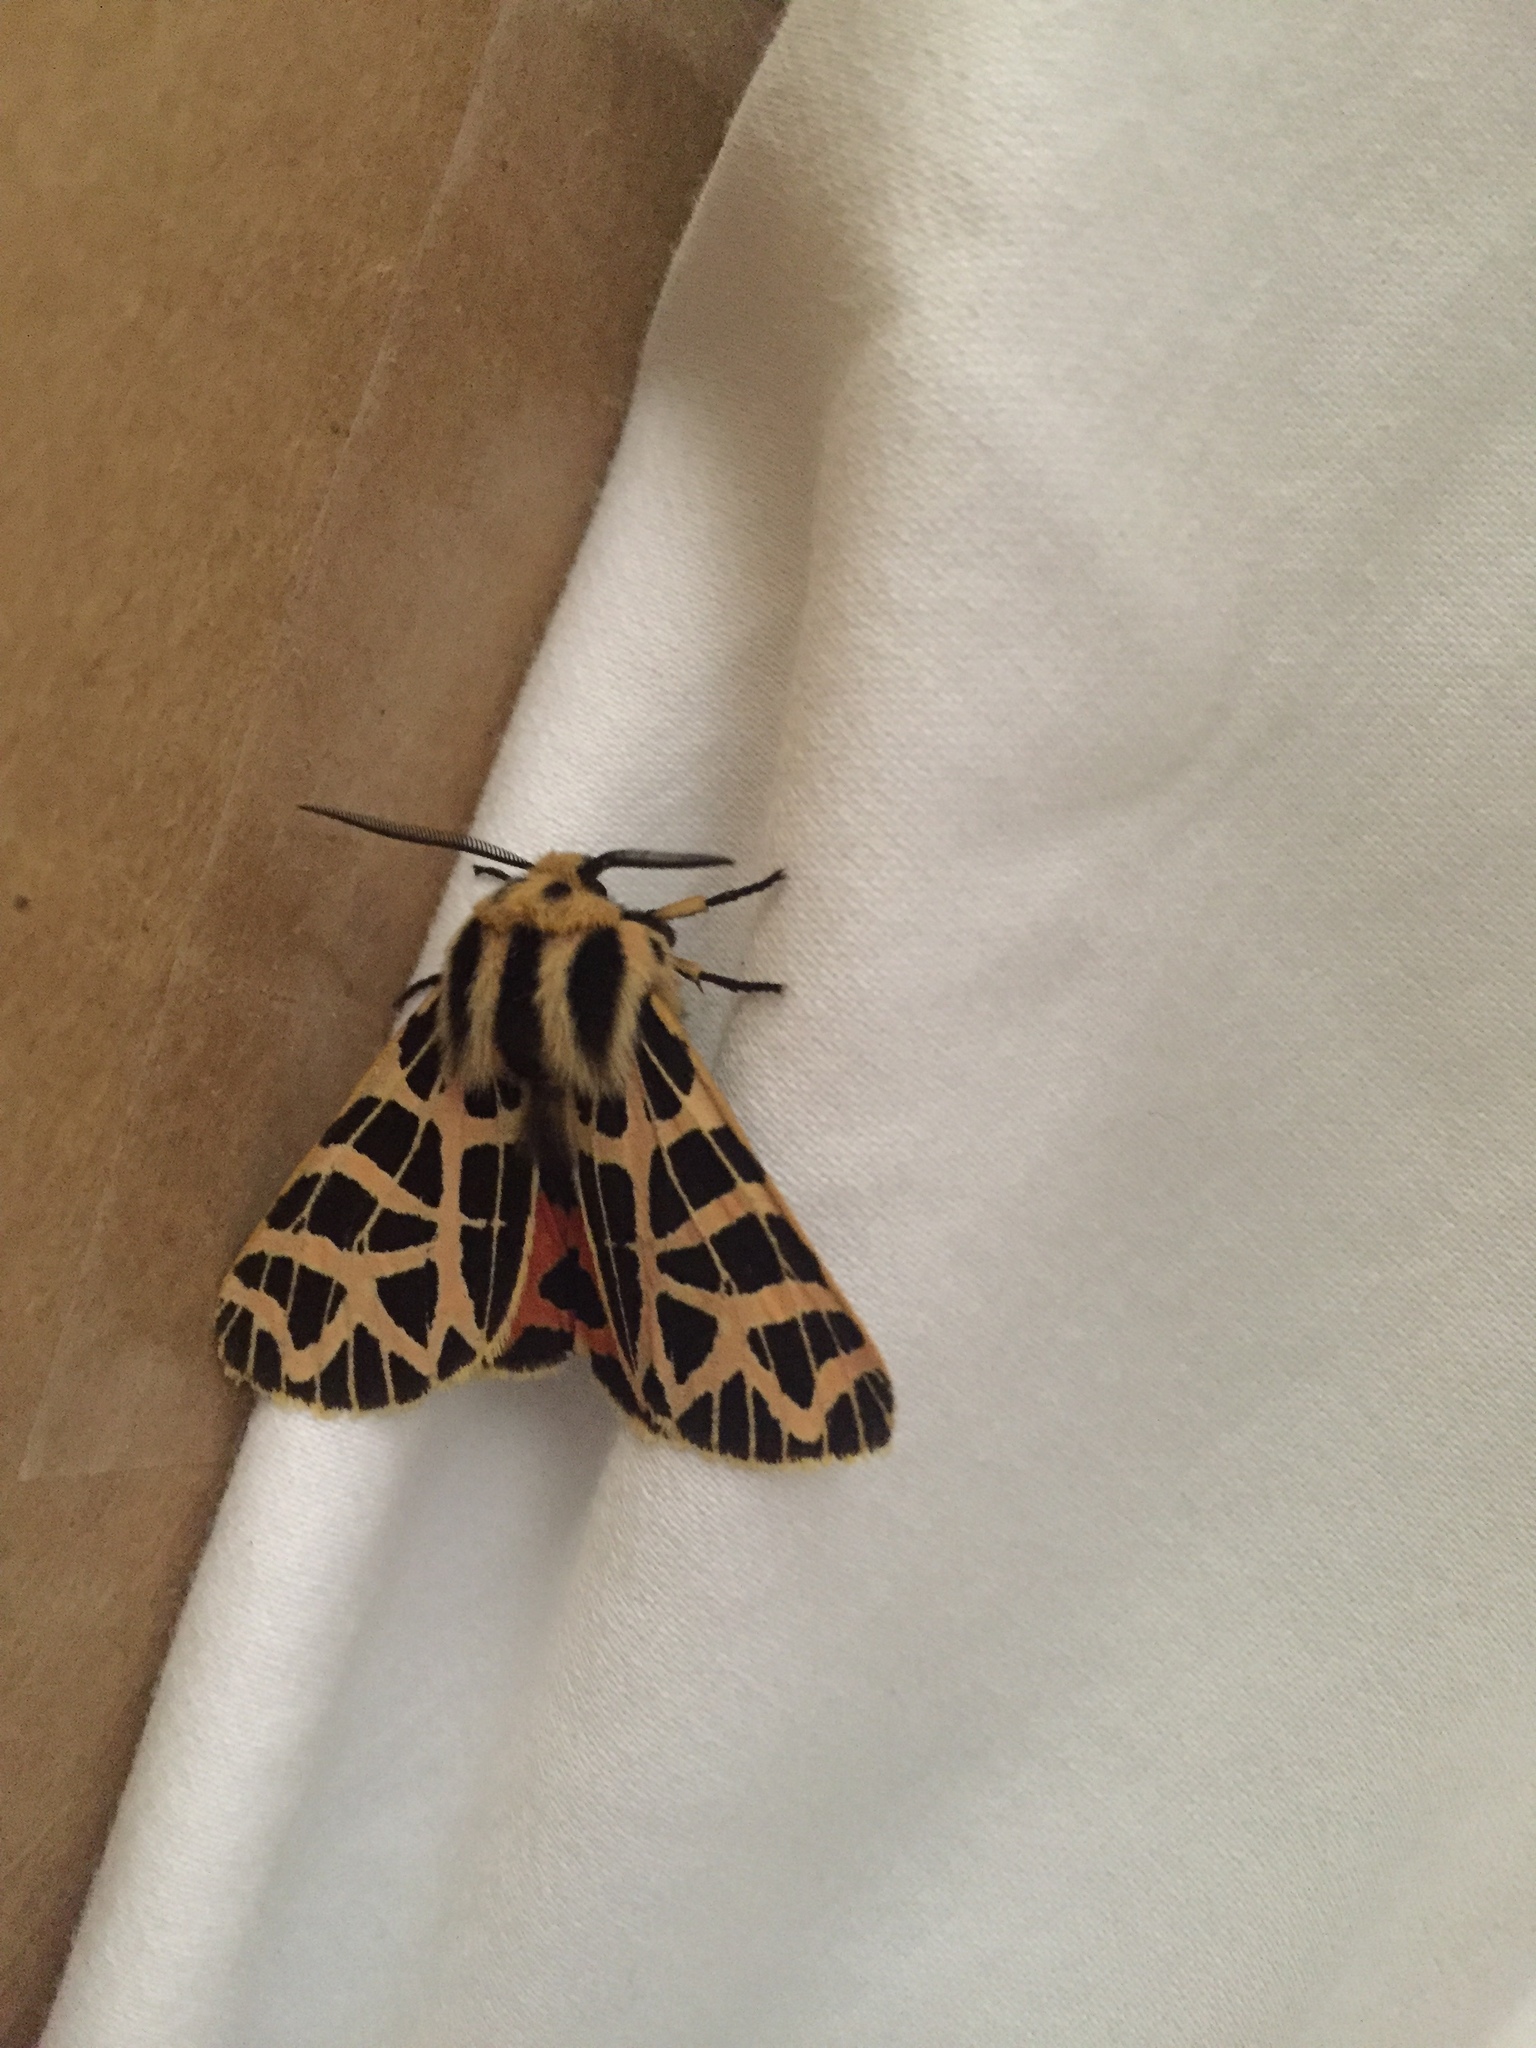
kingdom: Animalia
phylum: Arthropoda
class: Insecta
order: Lepidoptera
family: Erebidae
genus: Apantesis
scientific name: Apantesis
